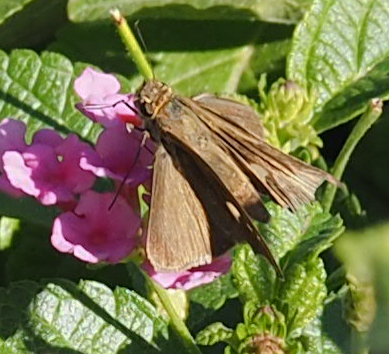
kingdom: Animalia
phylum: Arthropoda
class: Insecta
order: Lepidoptera
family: Hesperiidae
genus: Panoquina
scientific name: Panoquina ocola
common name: Ocola skipper
